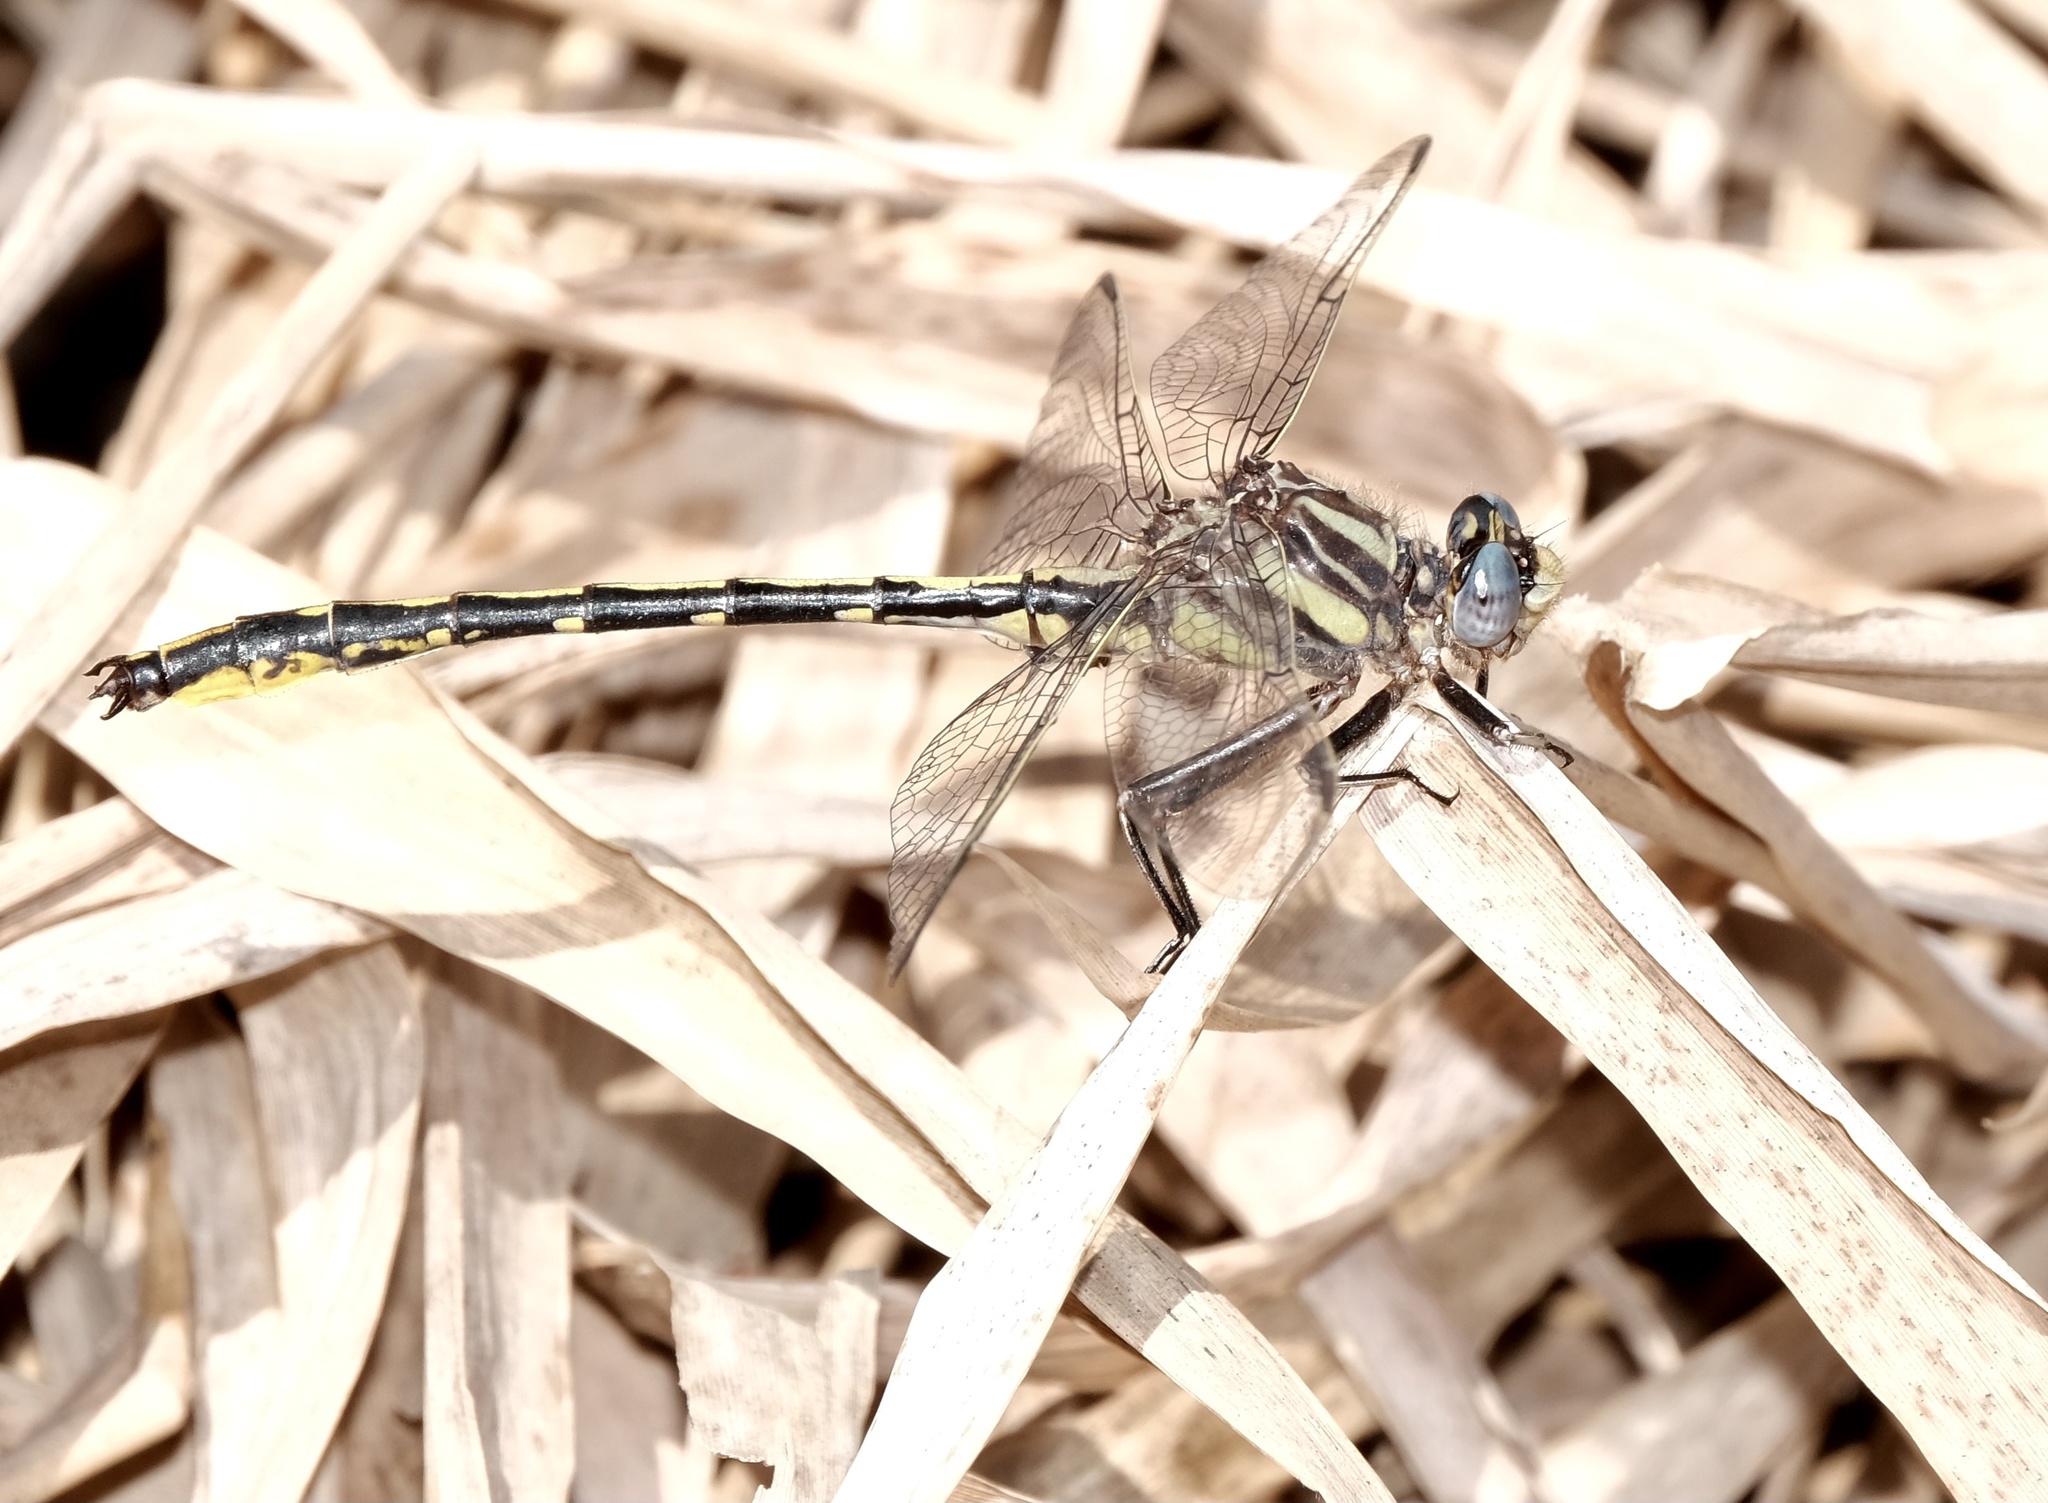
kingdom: Animalia
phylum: Arthropoda
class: Insecta
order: Odonata
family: Gomphidae
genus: Phanogomphus
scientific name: Phanogomphus oklahomensis
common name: Oklahoma clubtail
